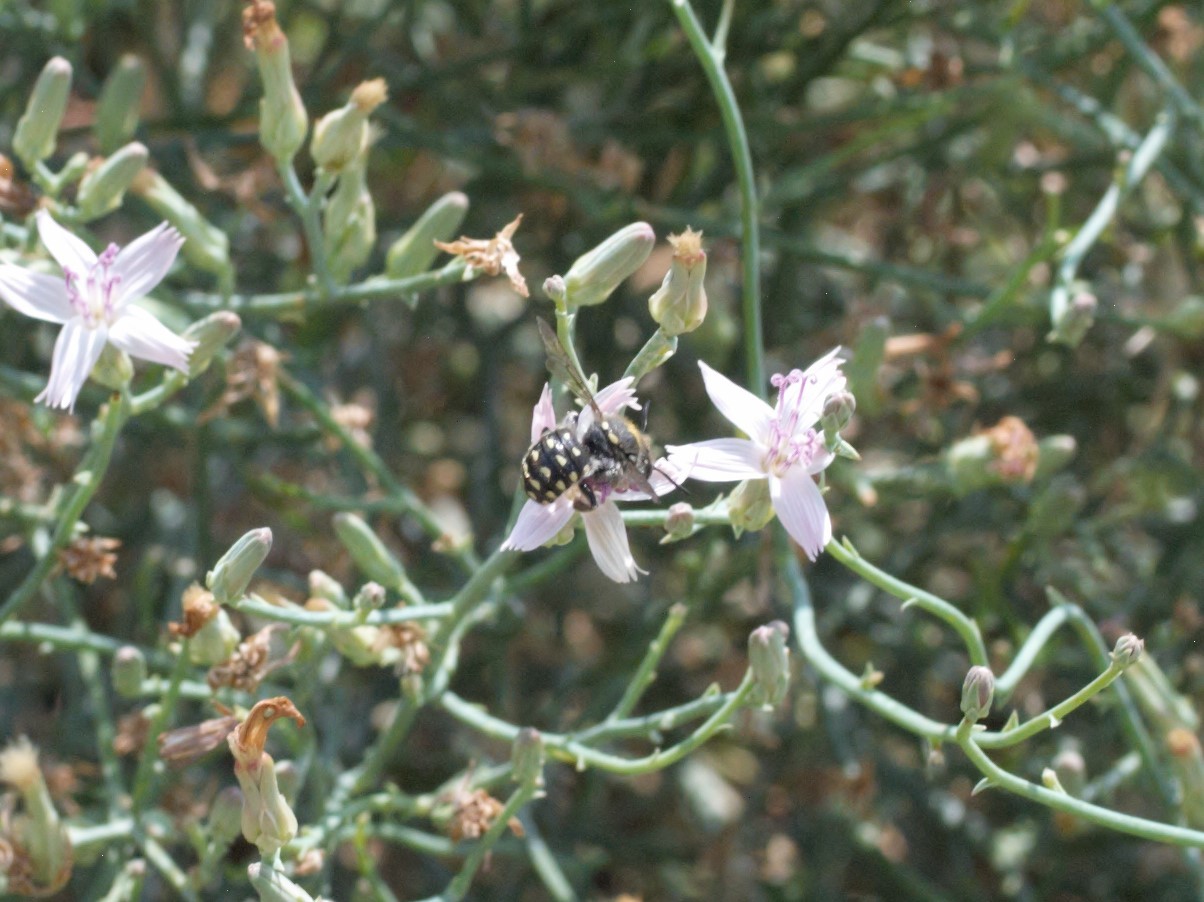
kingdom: Animalia
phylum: Arthropoda
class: Insecta
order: Hymenoptera
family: Megachilidae
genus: Anthidium
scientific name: Anthidium maculosum
